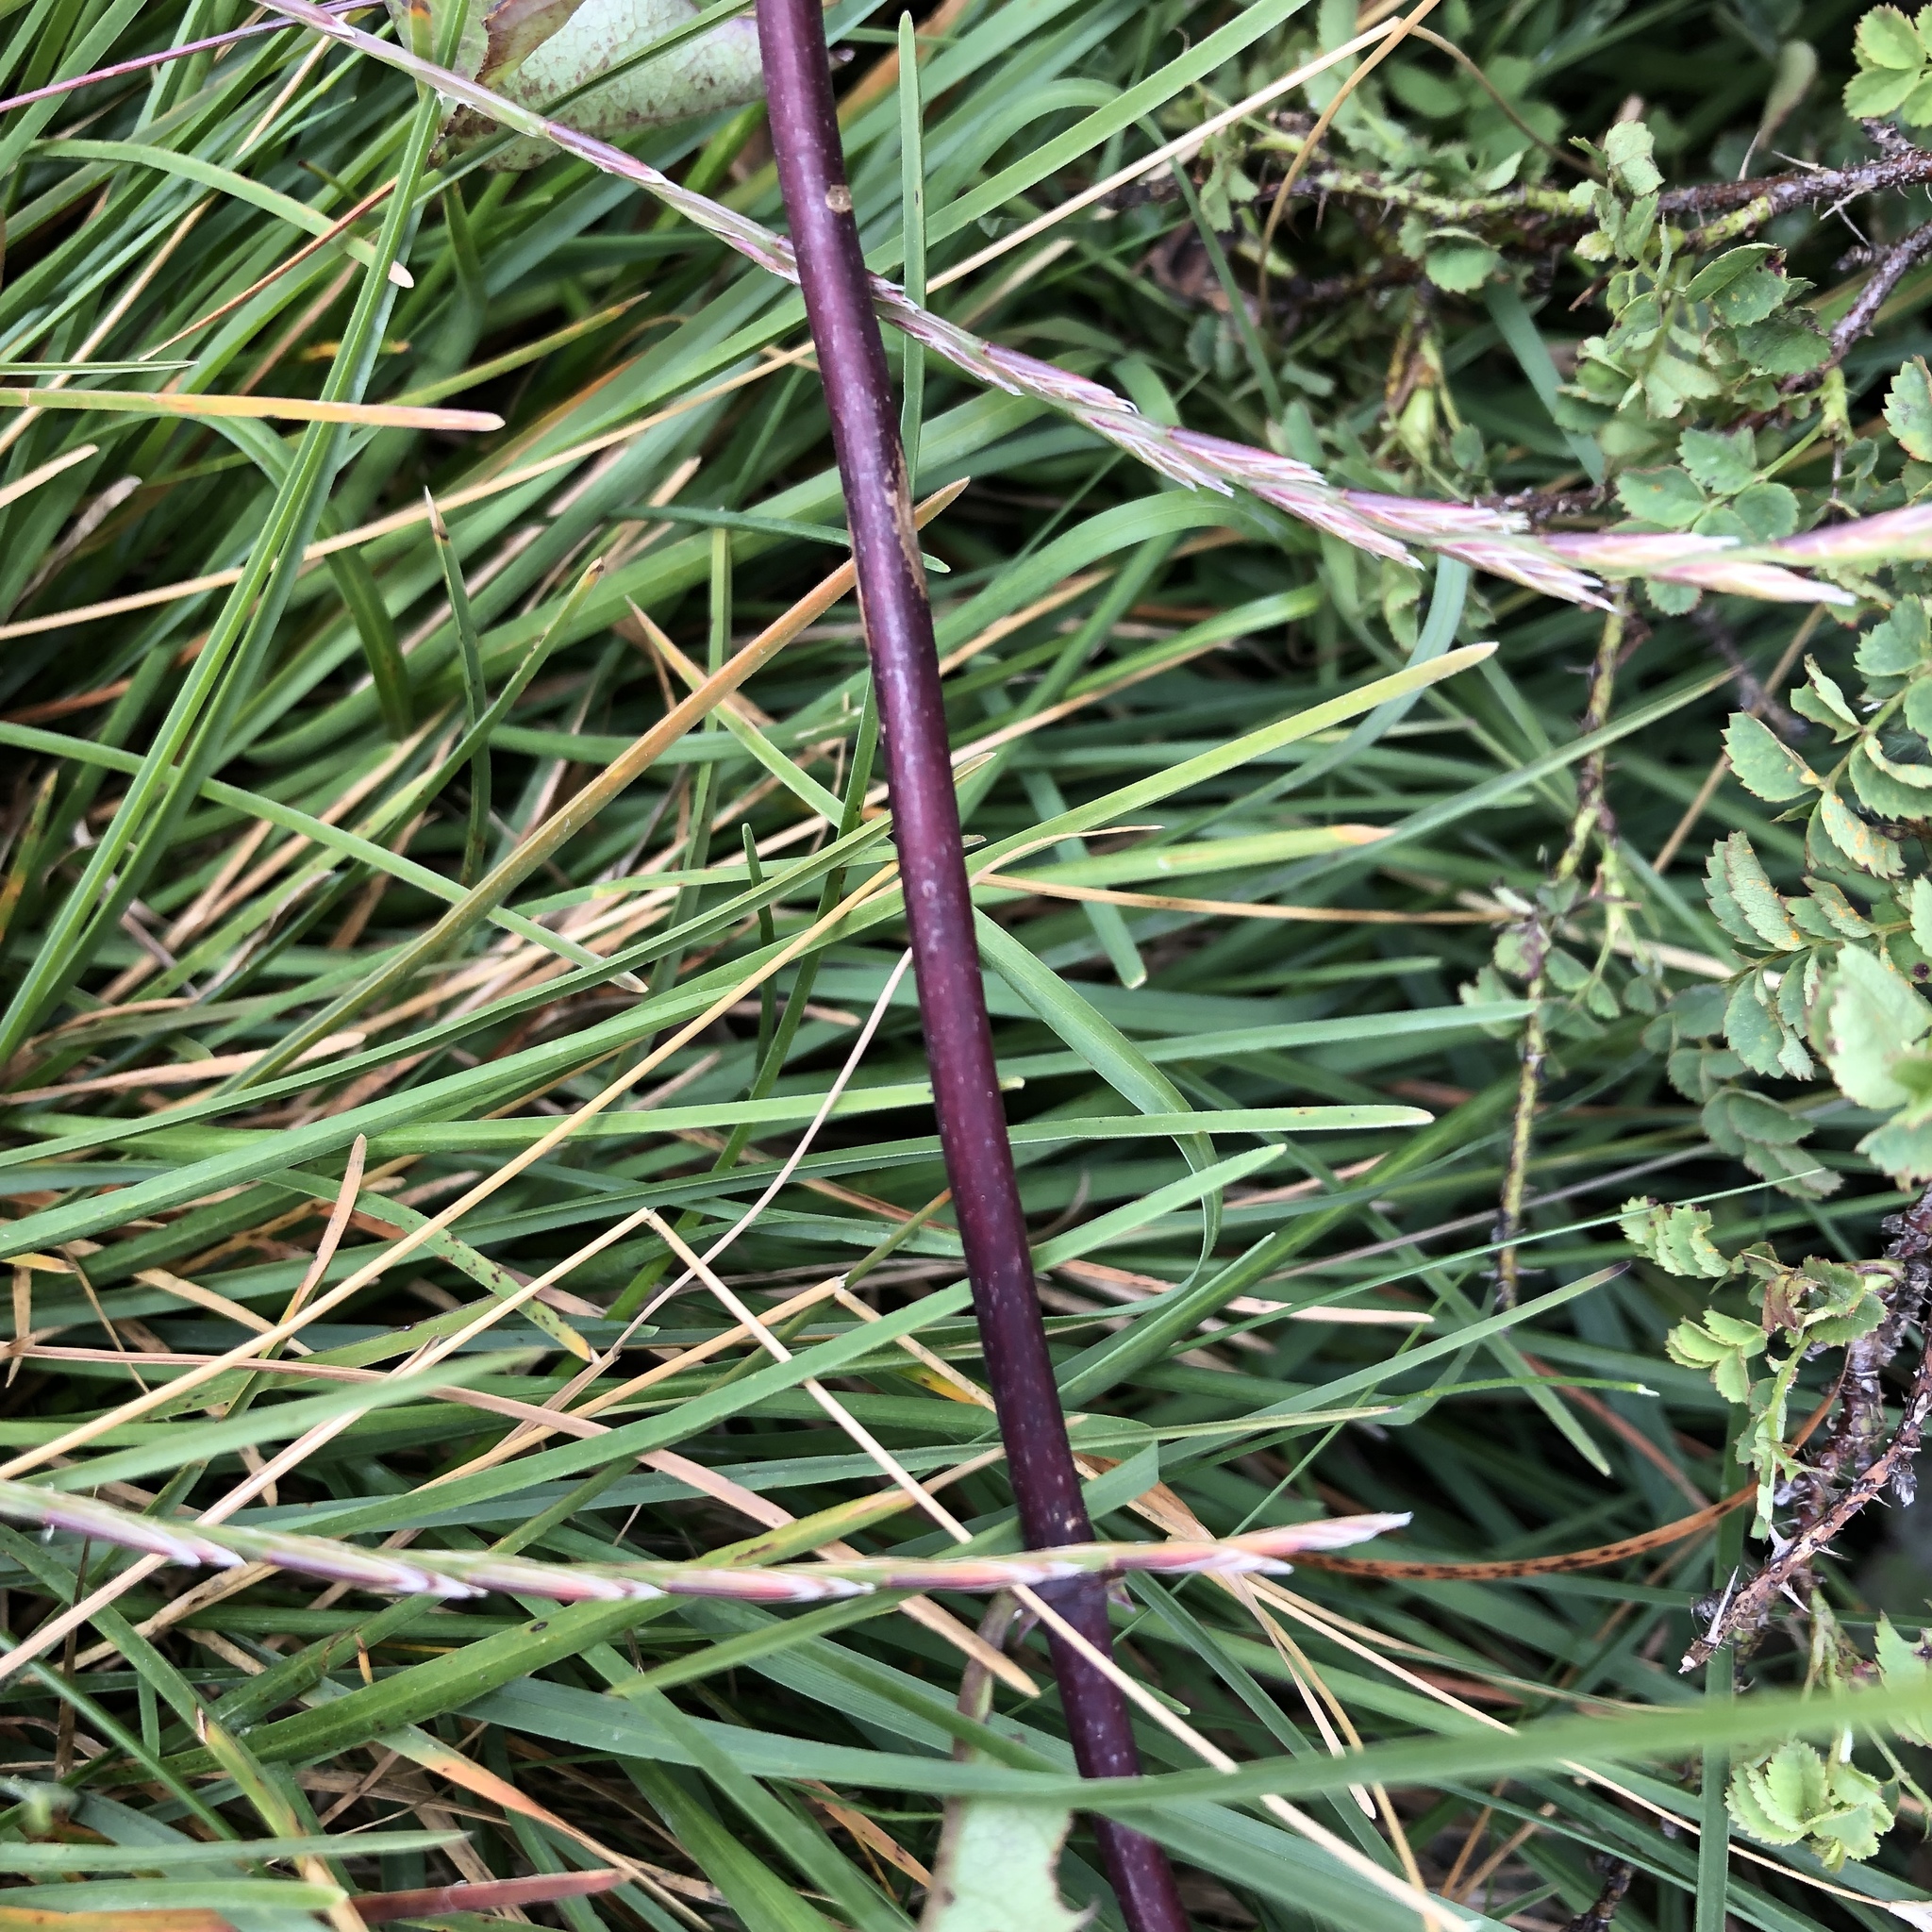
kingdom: Plantae
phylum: Tracheophyta
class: Magnoliopsida
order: Dipsacales
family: Caprifoliaceae
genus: Lonicera
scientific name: Lonicera periclymenum
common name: European honeysuckle
